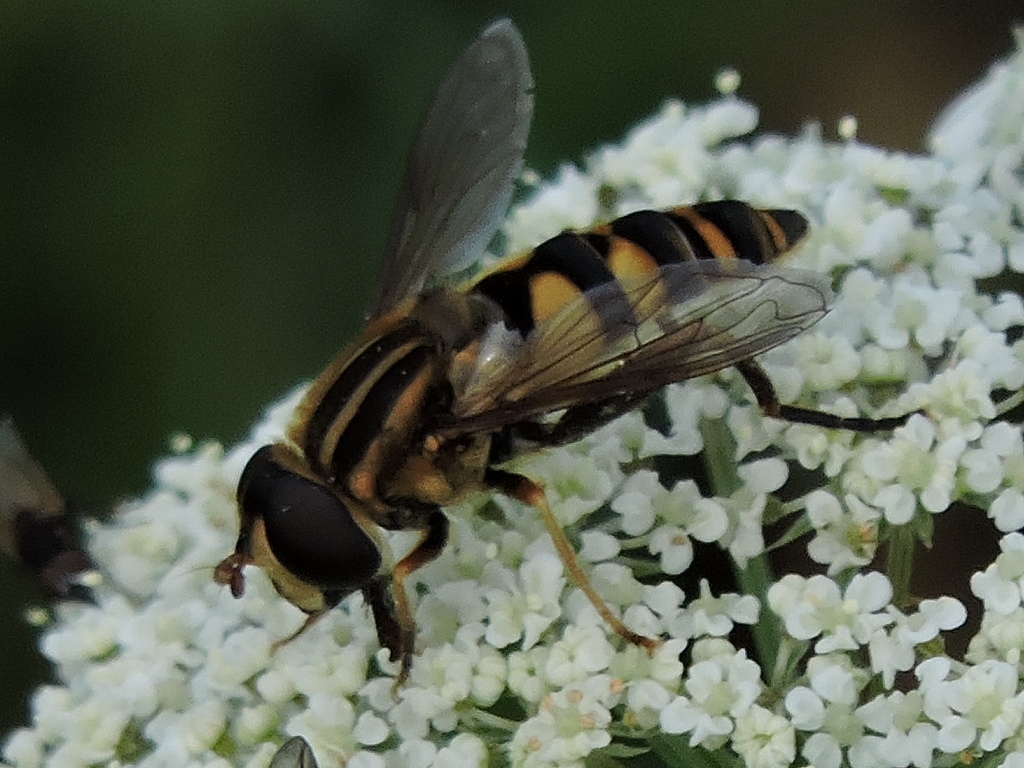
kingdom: Animalia
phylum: Arthropoda
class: Insecta
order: Diptera
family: Syrphidae
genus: Helophilus
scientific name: Helophilus fasciatus
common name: Narrow-headed marsh fly
